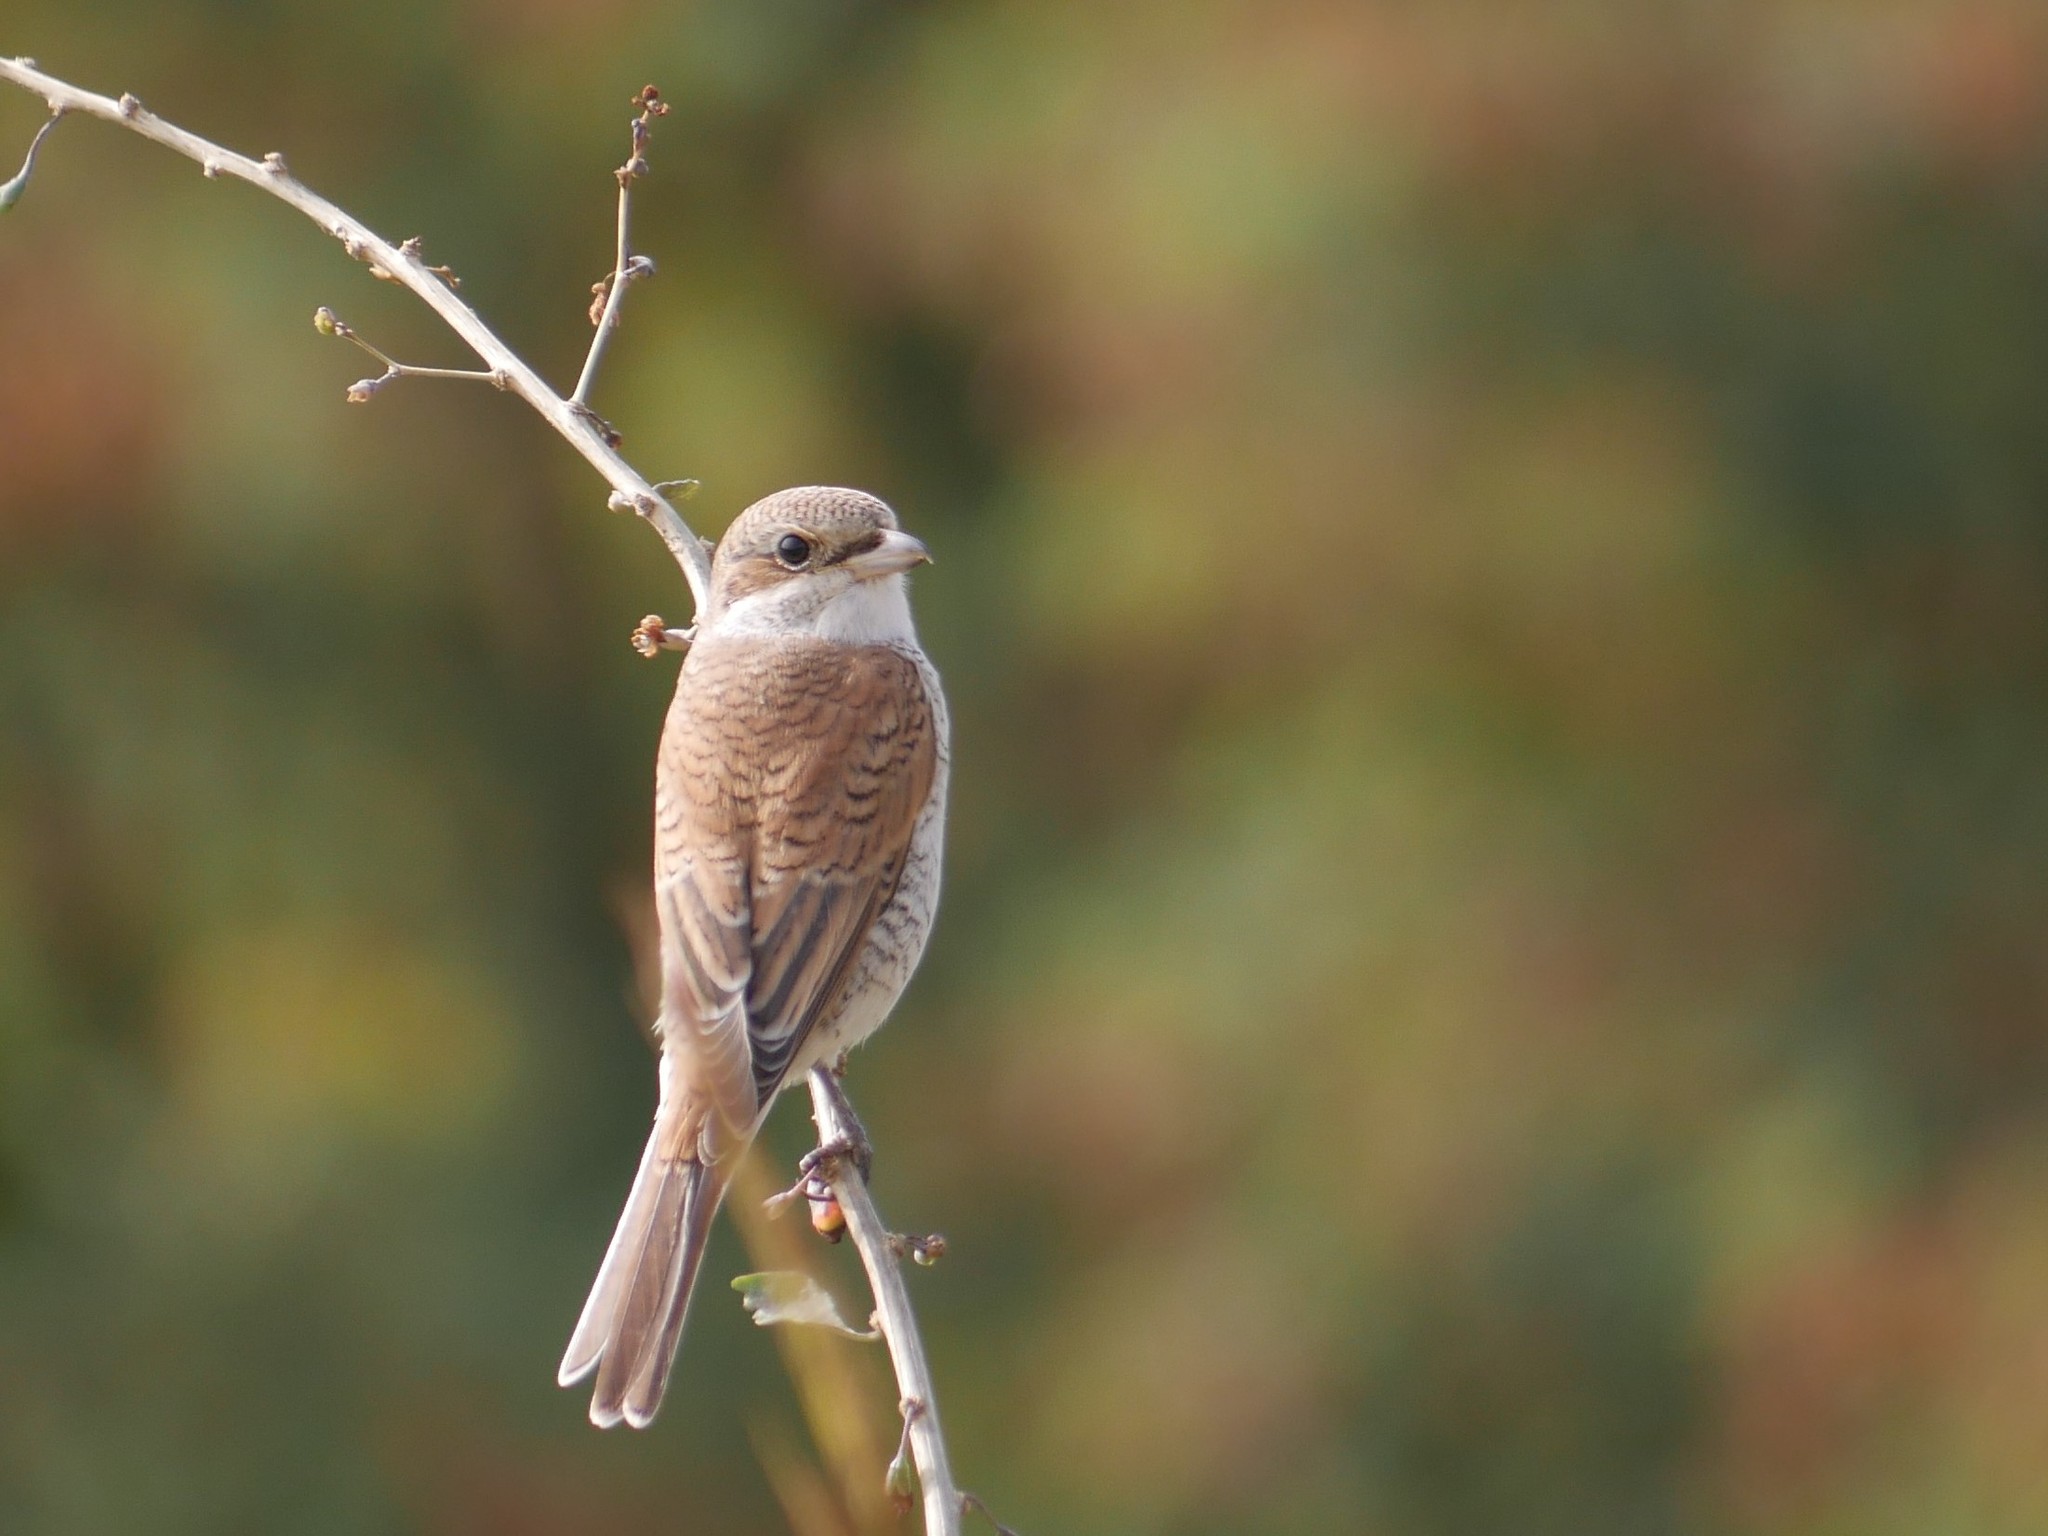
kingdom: Animalia
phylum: Chordata
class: Aves
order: Passeriformes
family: Laniidae
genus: Lanius
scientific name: Lanius collurio
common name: Red-backed shrike
